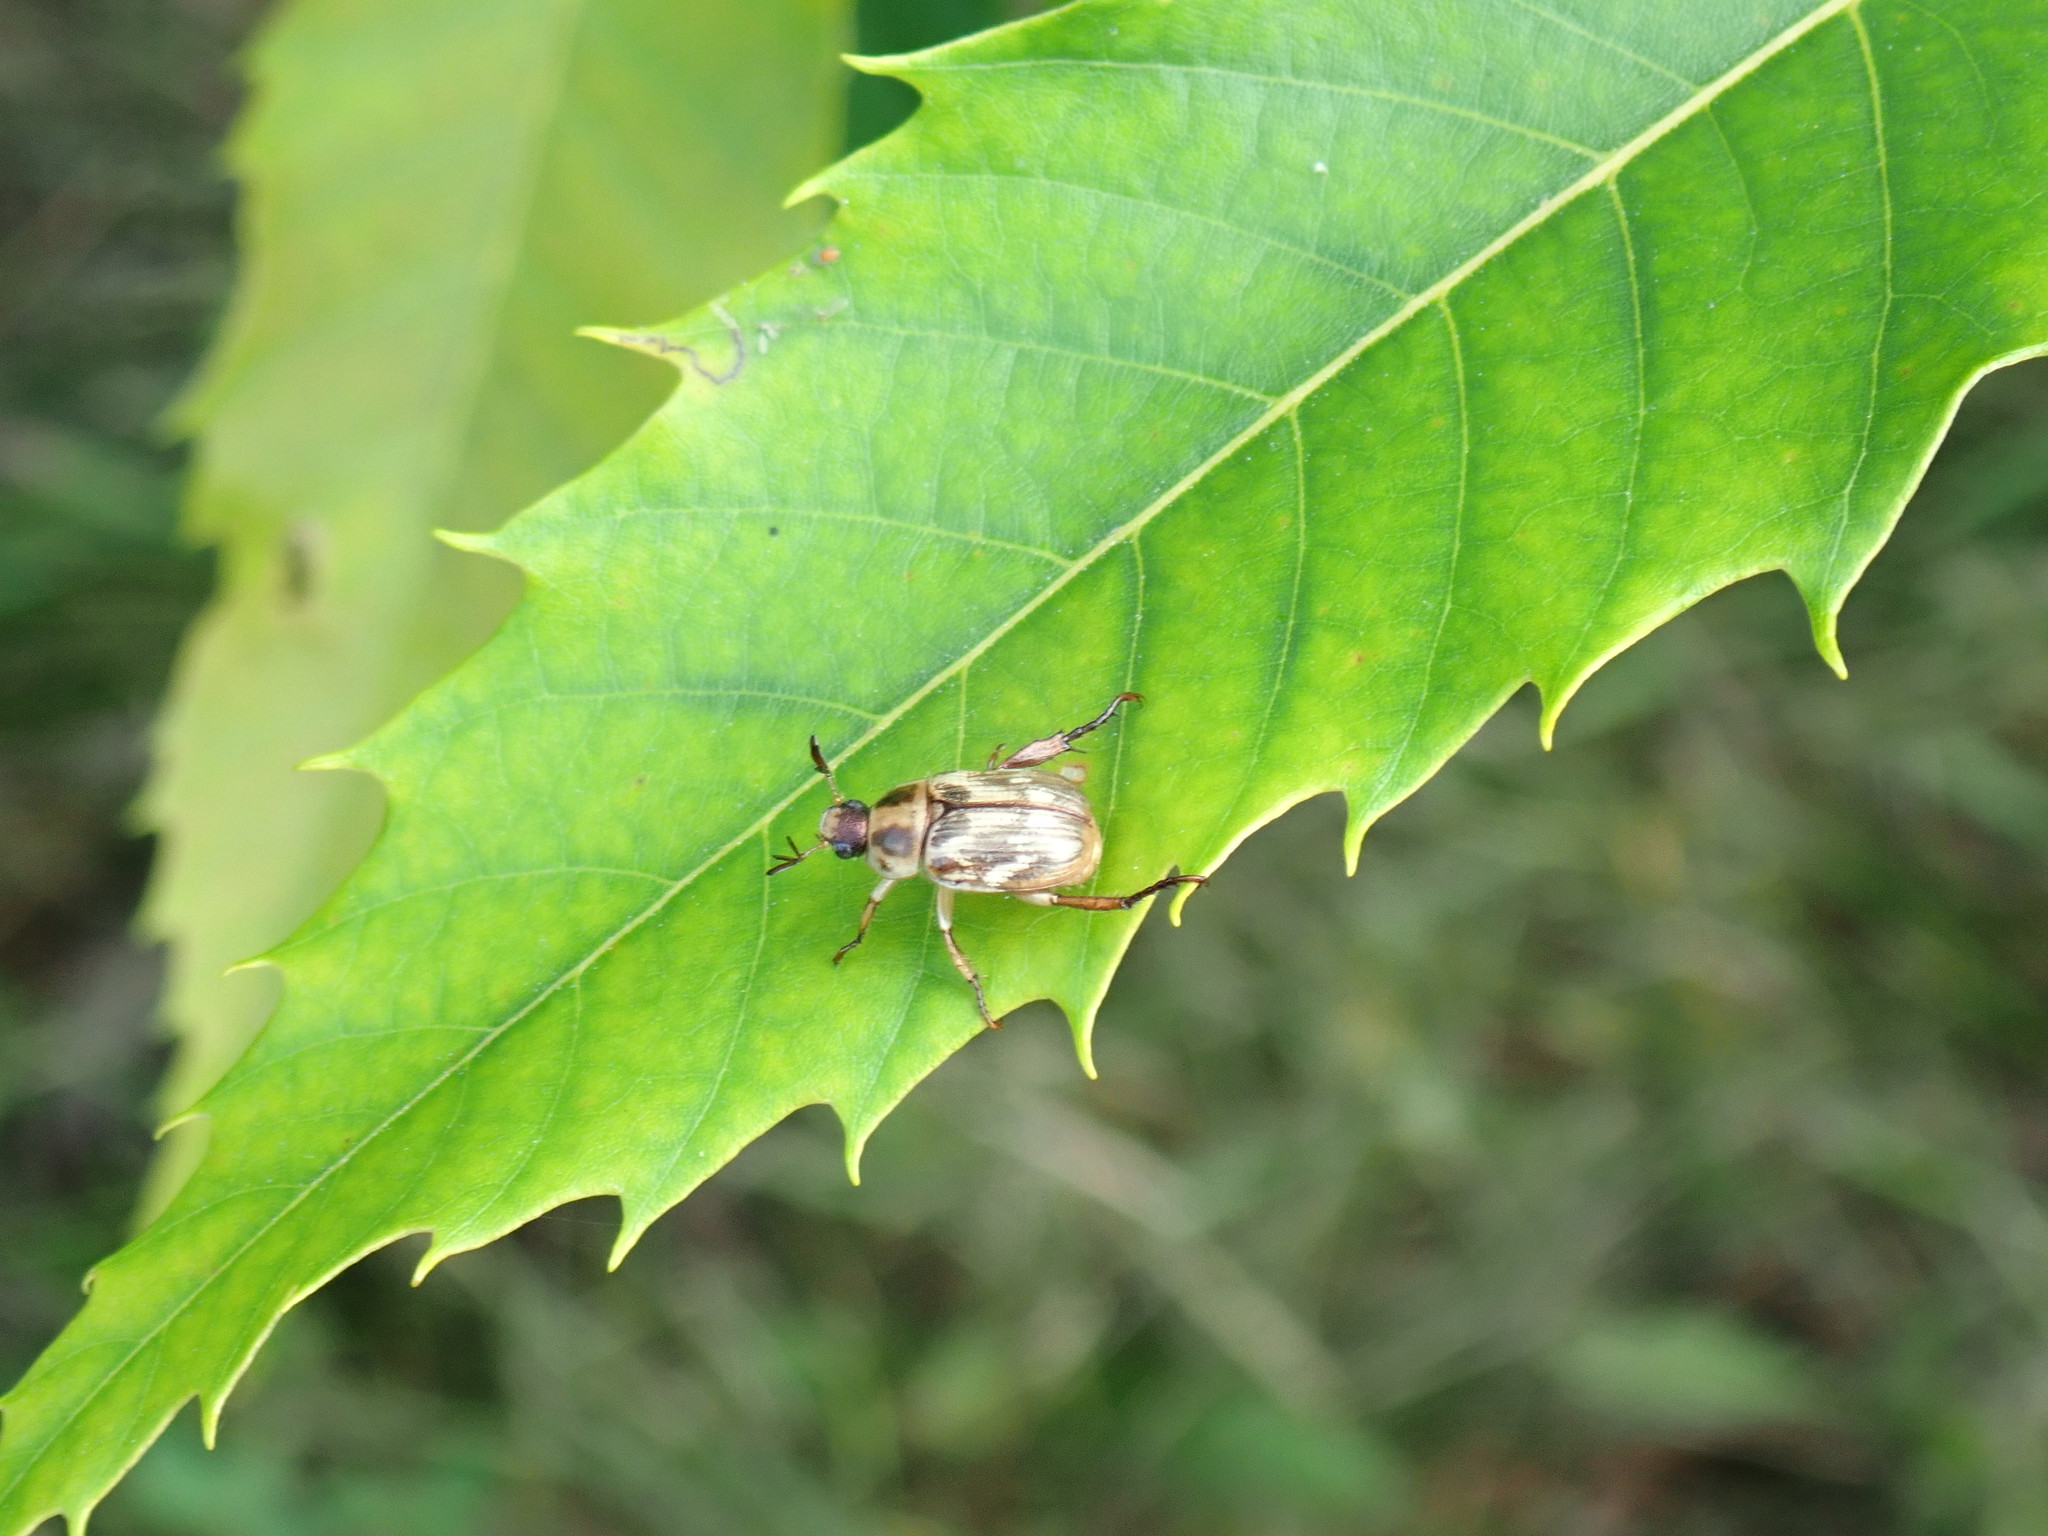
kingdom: Animalia
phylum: Arthropoda
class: Insecta
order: Coleoptera
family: Scarabaeidae
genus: Exomala
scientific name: Exomala orientalis
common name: Oriental beetle
